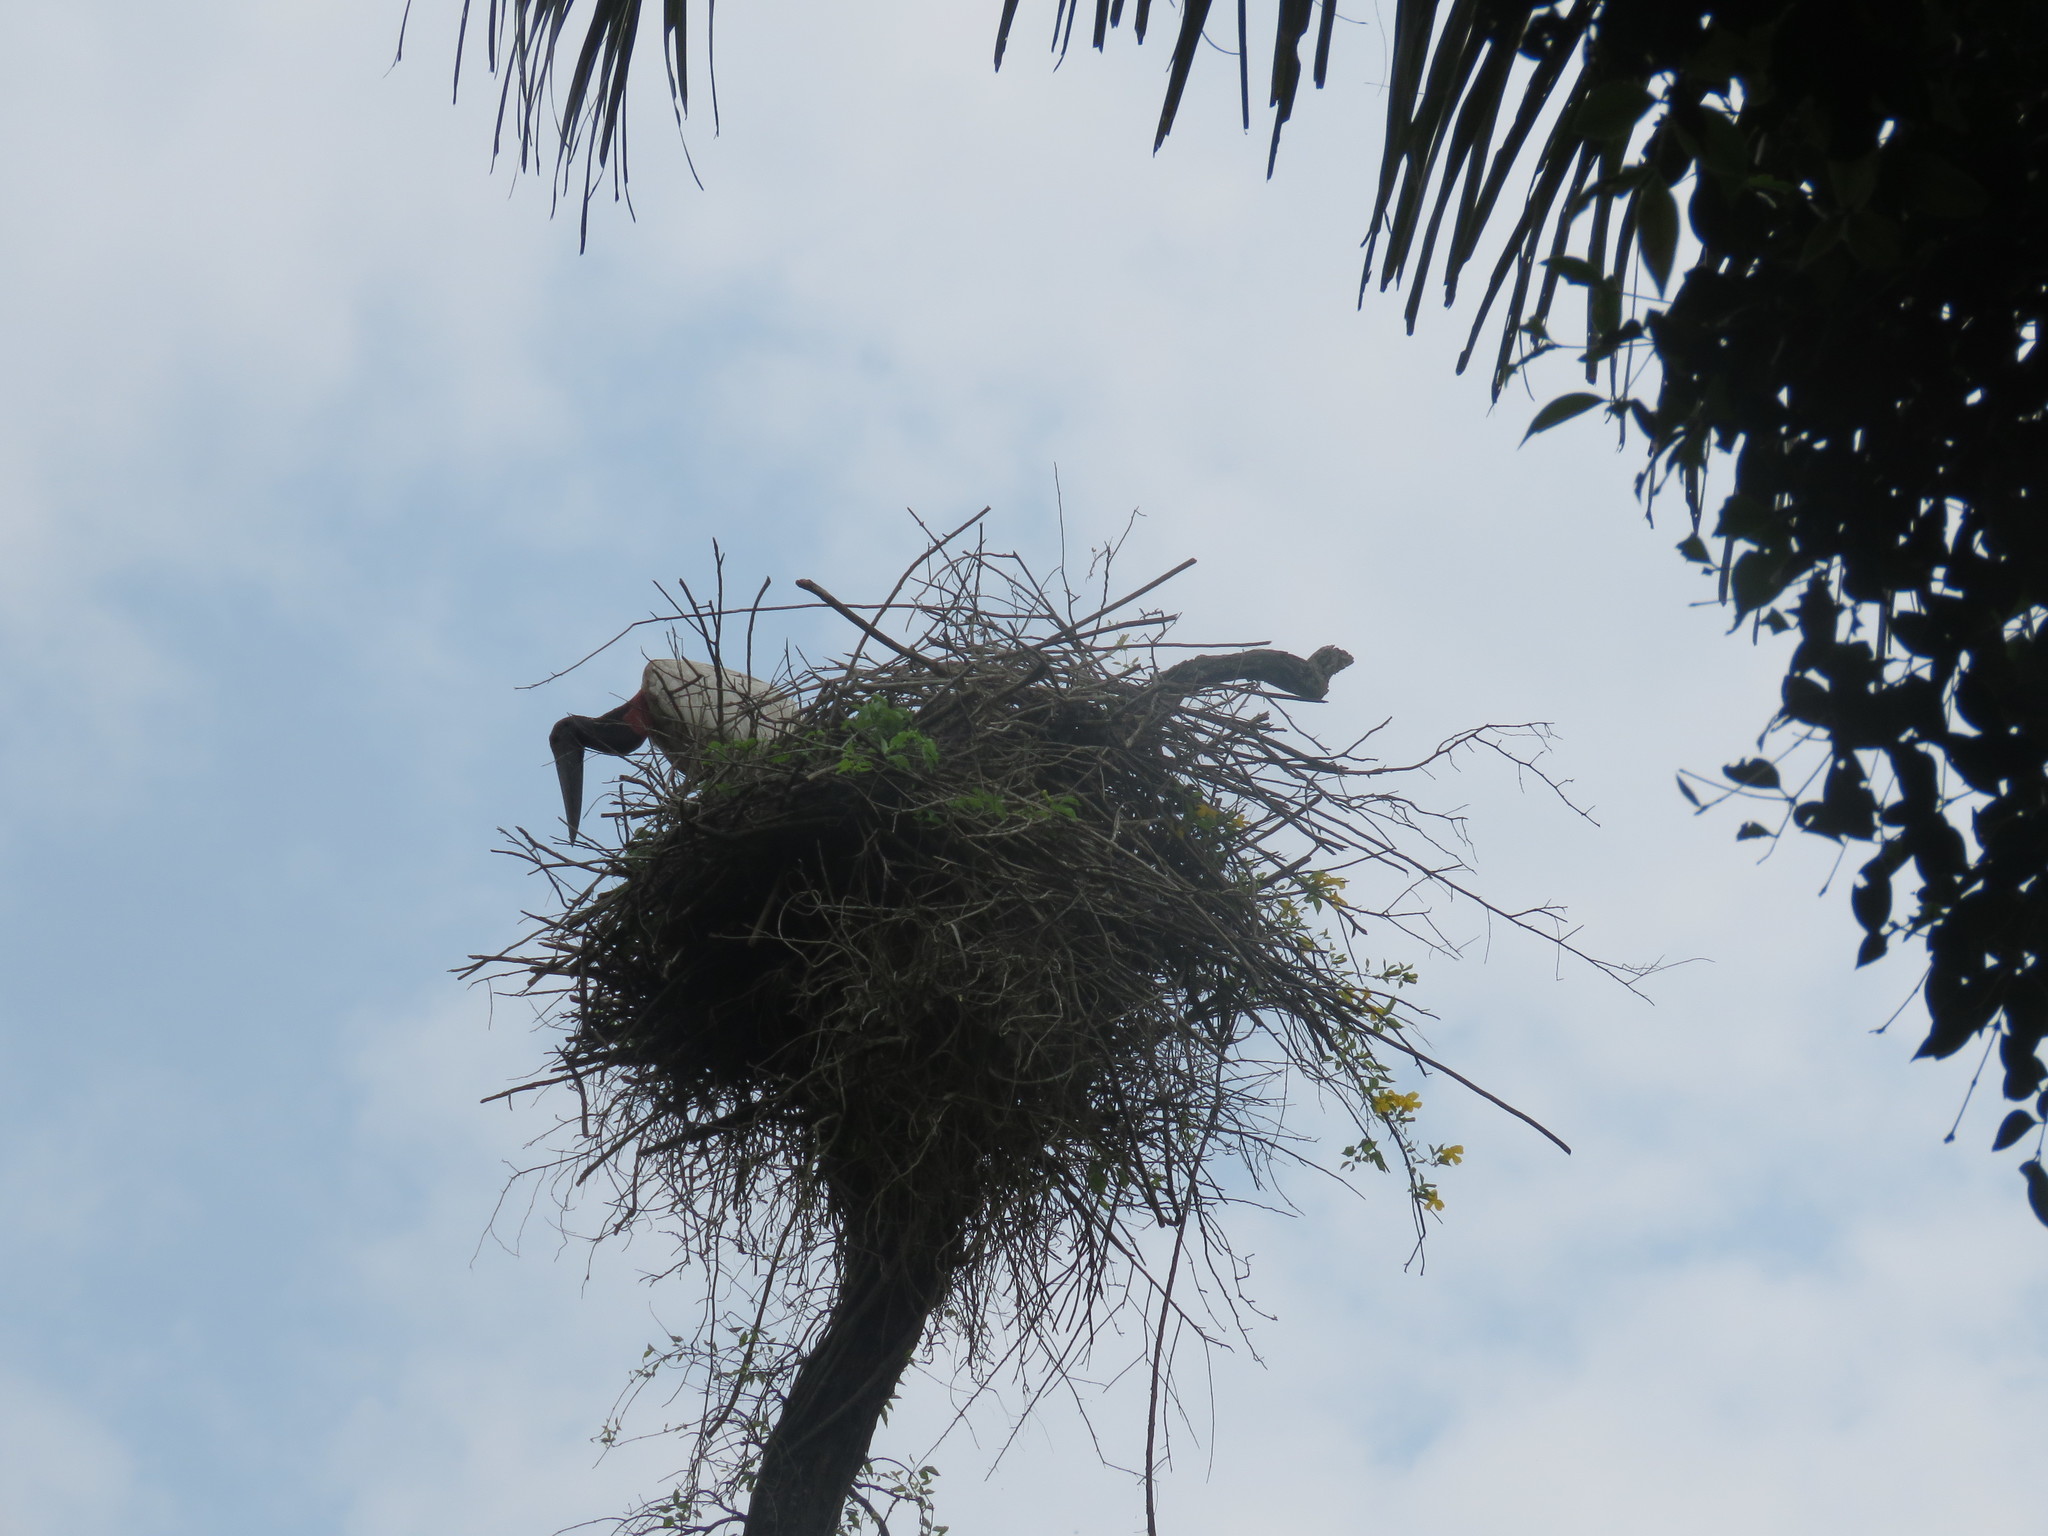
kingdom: Animalia
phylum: Chordata
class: Aves
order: Ciconiiformes
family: Ciconiidae
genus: Jabiru
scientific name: Jabiru mycteria
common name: Jabiru
